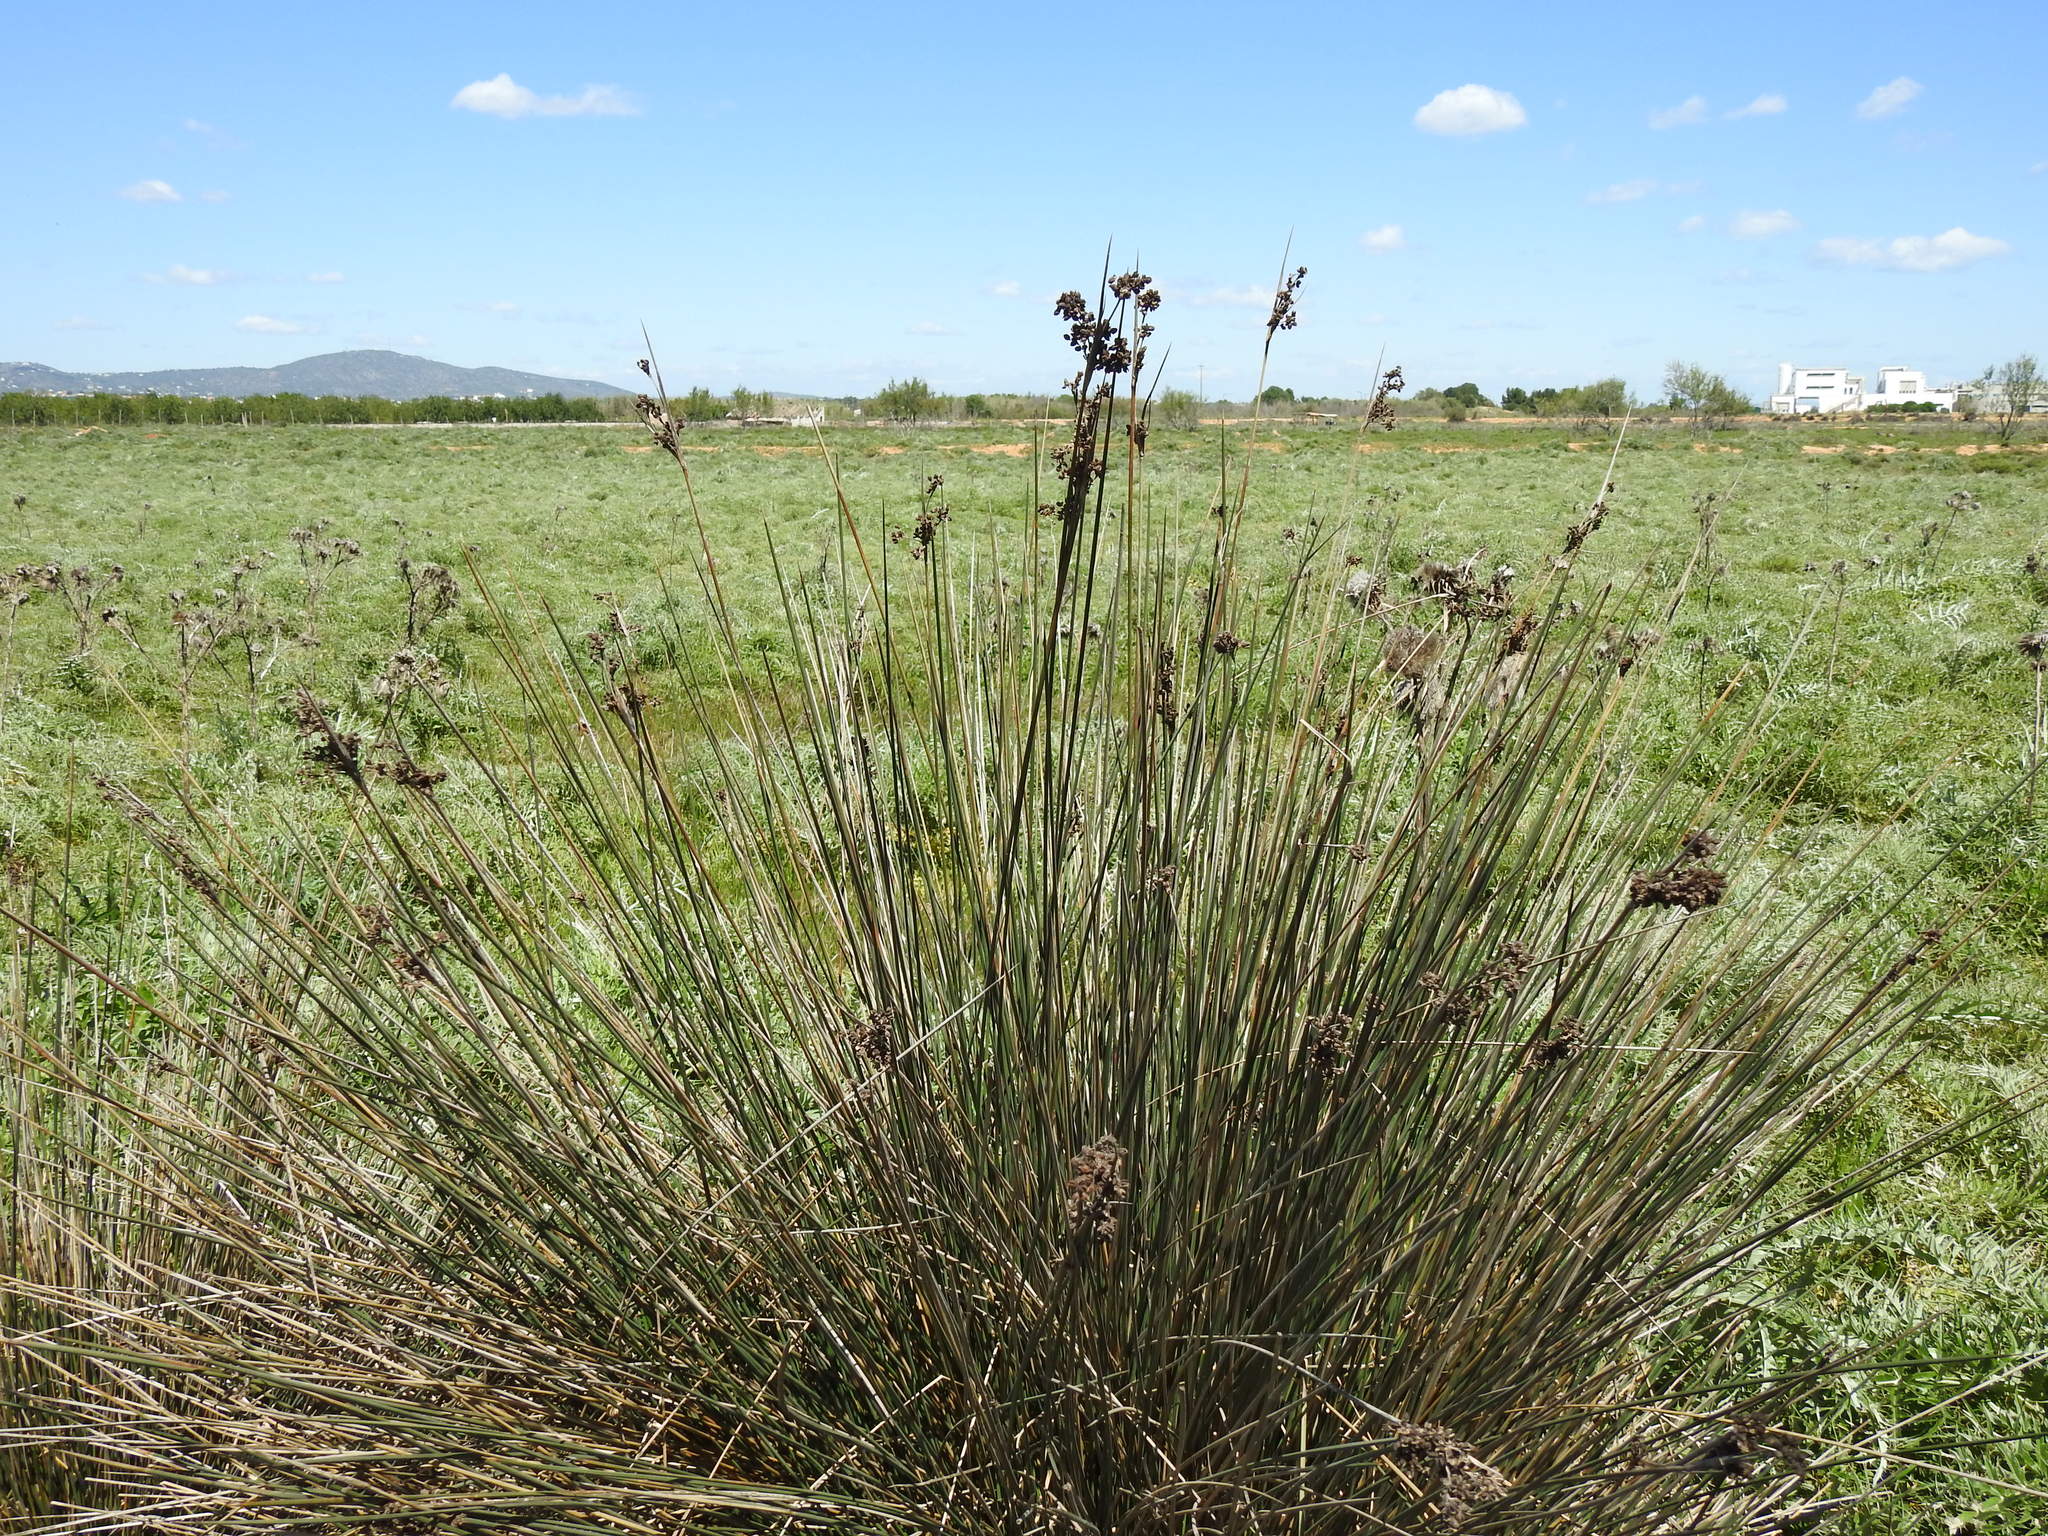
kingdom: Plantae
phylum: Tracheophyta
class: Liliopsida
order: Poales
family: Juncaceae
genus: Juncus
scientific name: Juncus acutus
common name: Sharp rush
